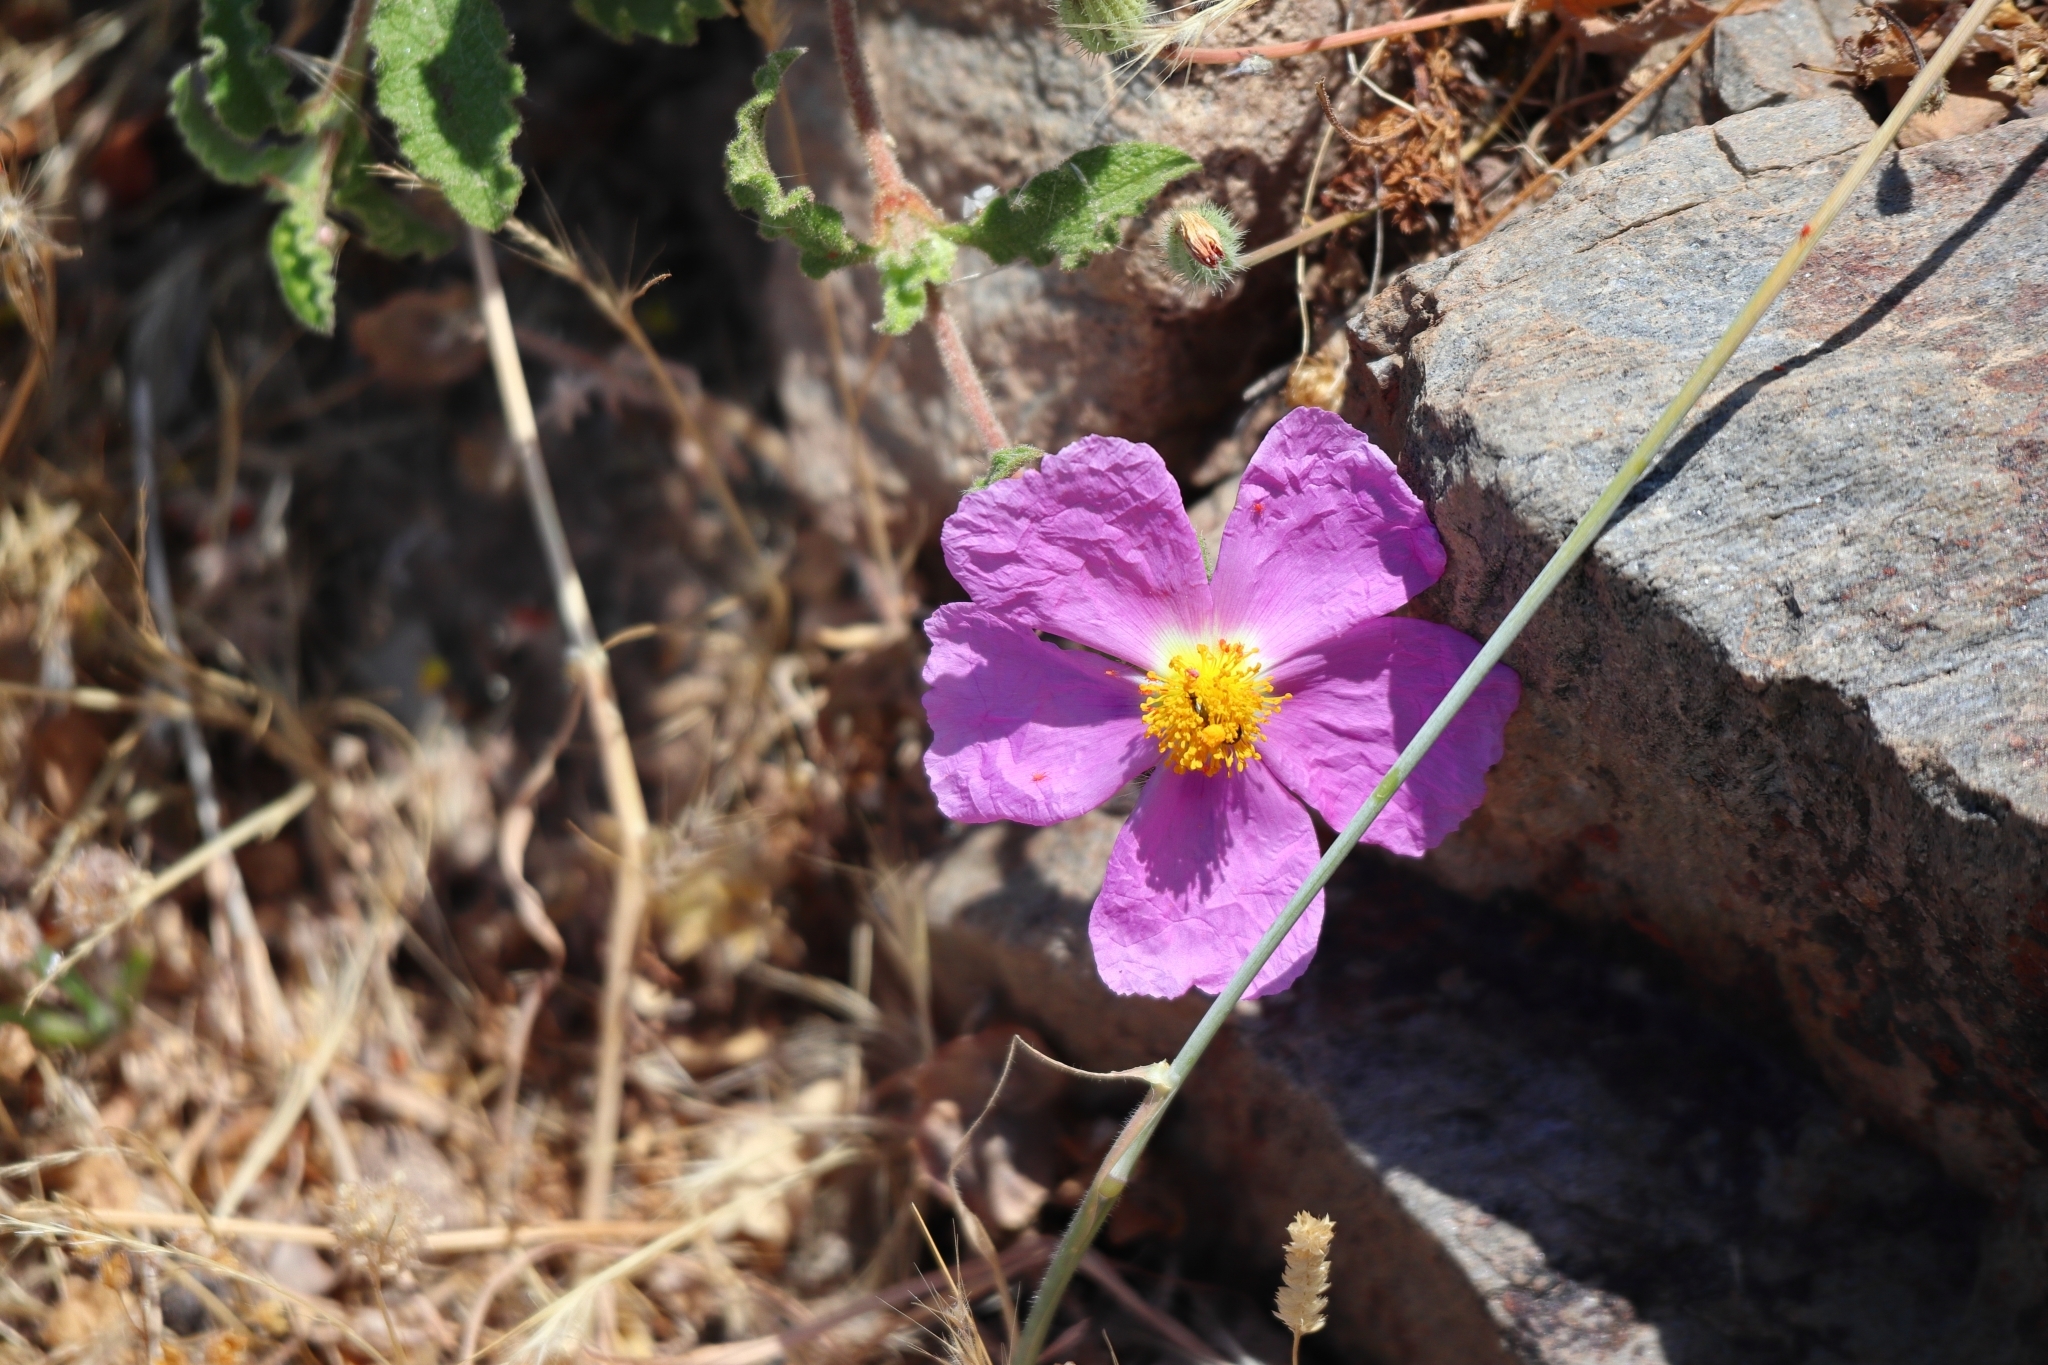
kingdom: Plantae
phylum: Tracheophyta
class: Magnoliopsida
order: Malvales
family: Cistaceae
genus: Cistus
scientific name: Cistus creticus
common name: Cretan rockrose
